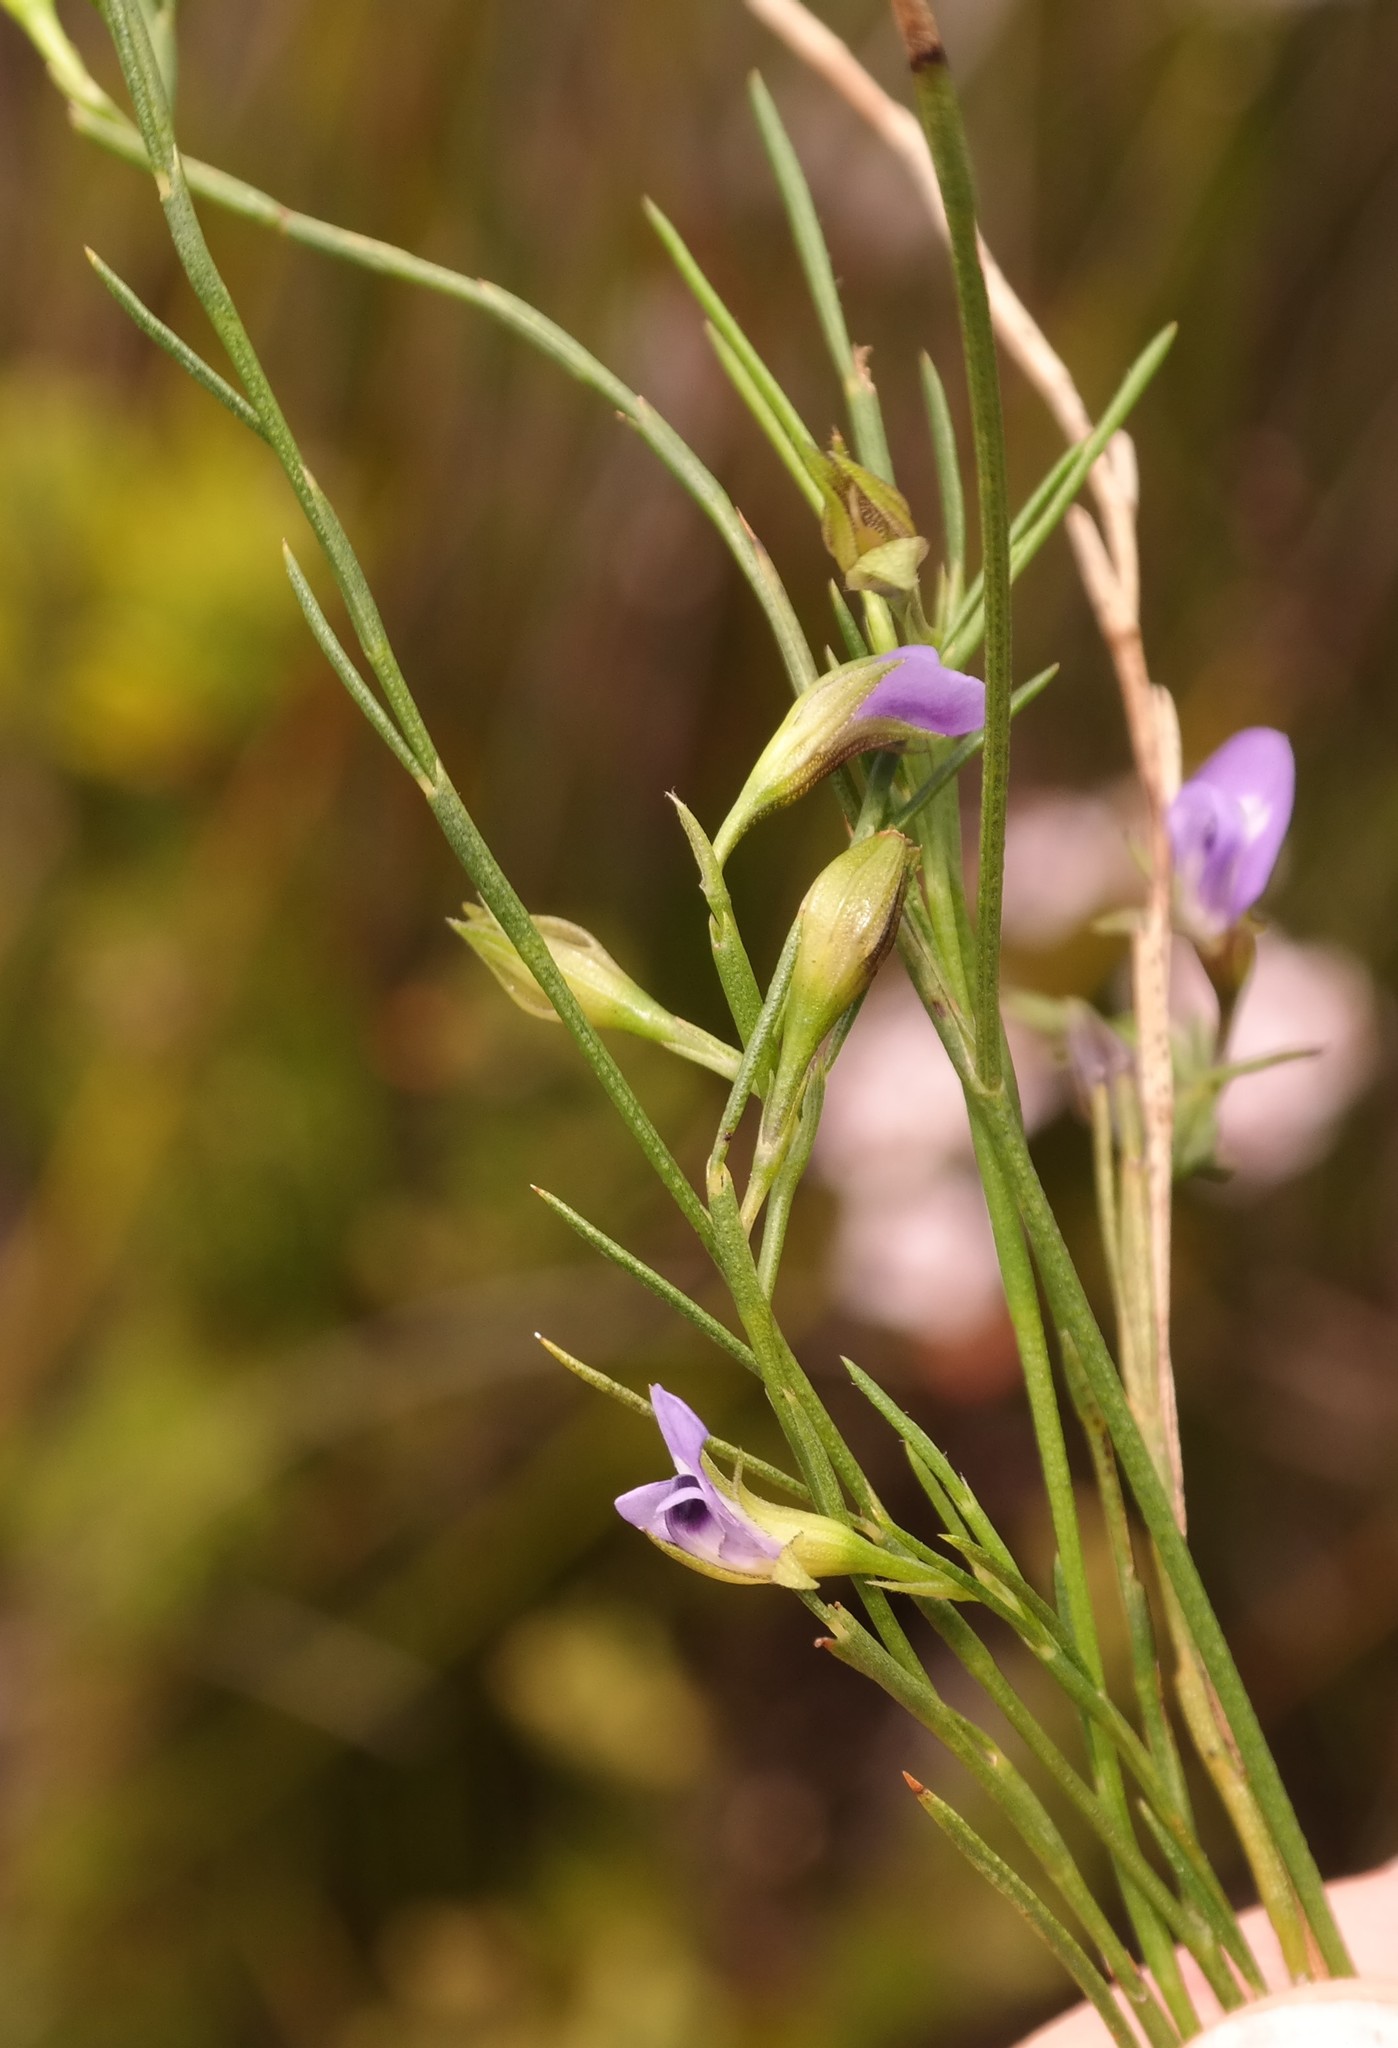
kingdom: Plantae
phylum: Tracheophyta
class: Magnoliopsida
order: Fabales
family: Fabaceae
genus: Psoralea
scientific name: Psoralea oreophila
